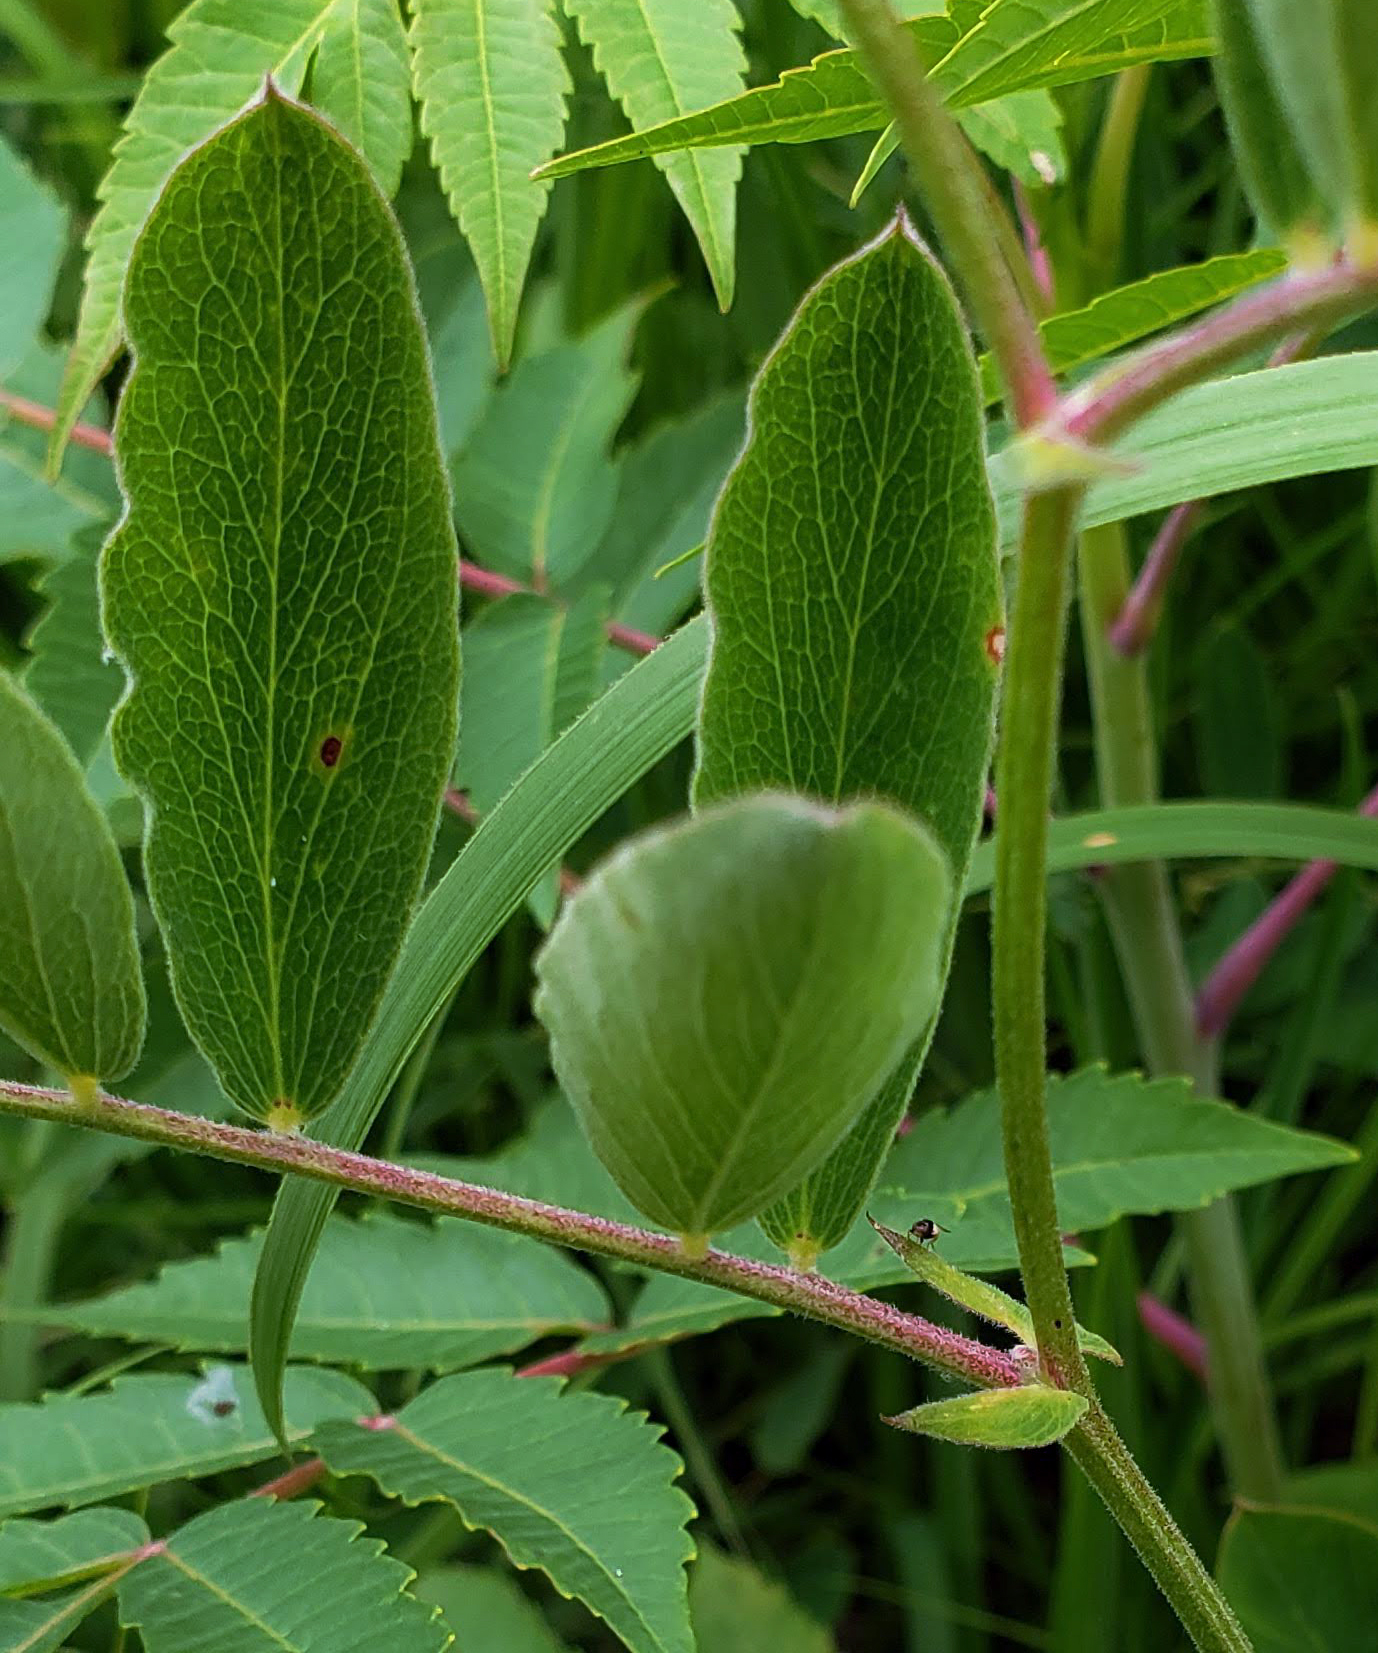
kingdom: Plantae
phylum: Tracheophyta
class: Magnoliopsida
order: Fabales
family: Fabaceae
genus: Lathyrus
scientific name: Lathyrus venosus
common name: Forest-pea
